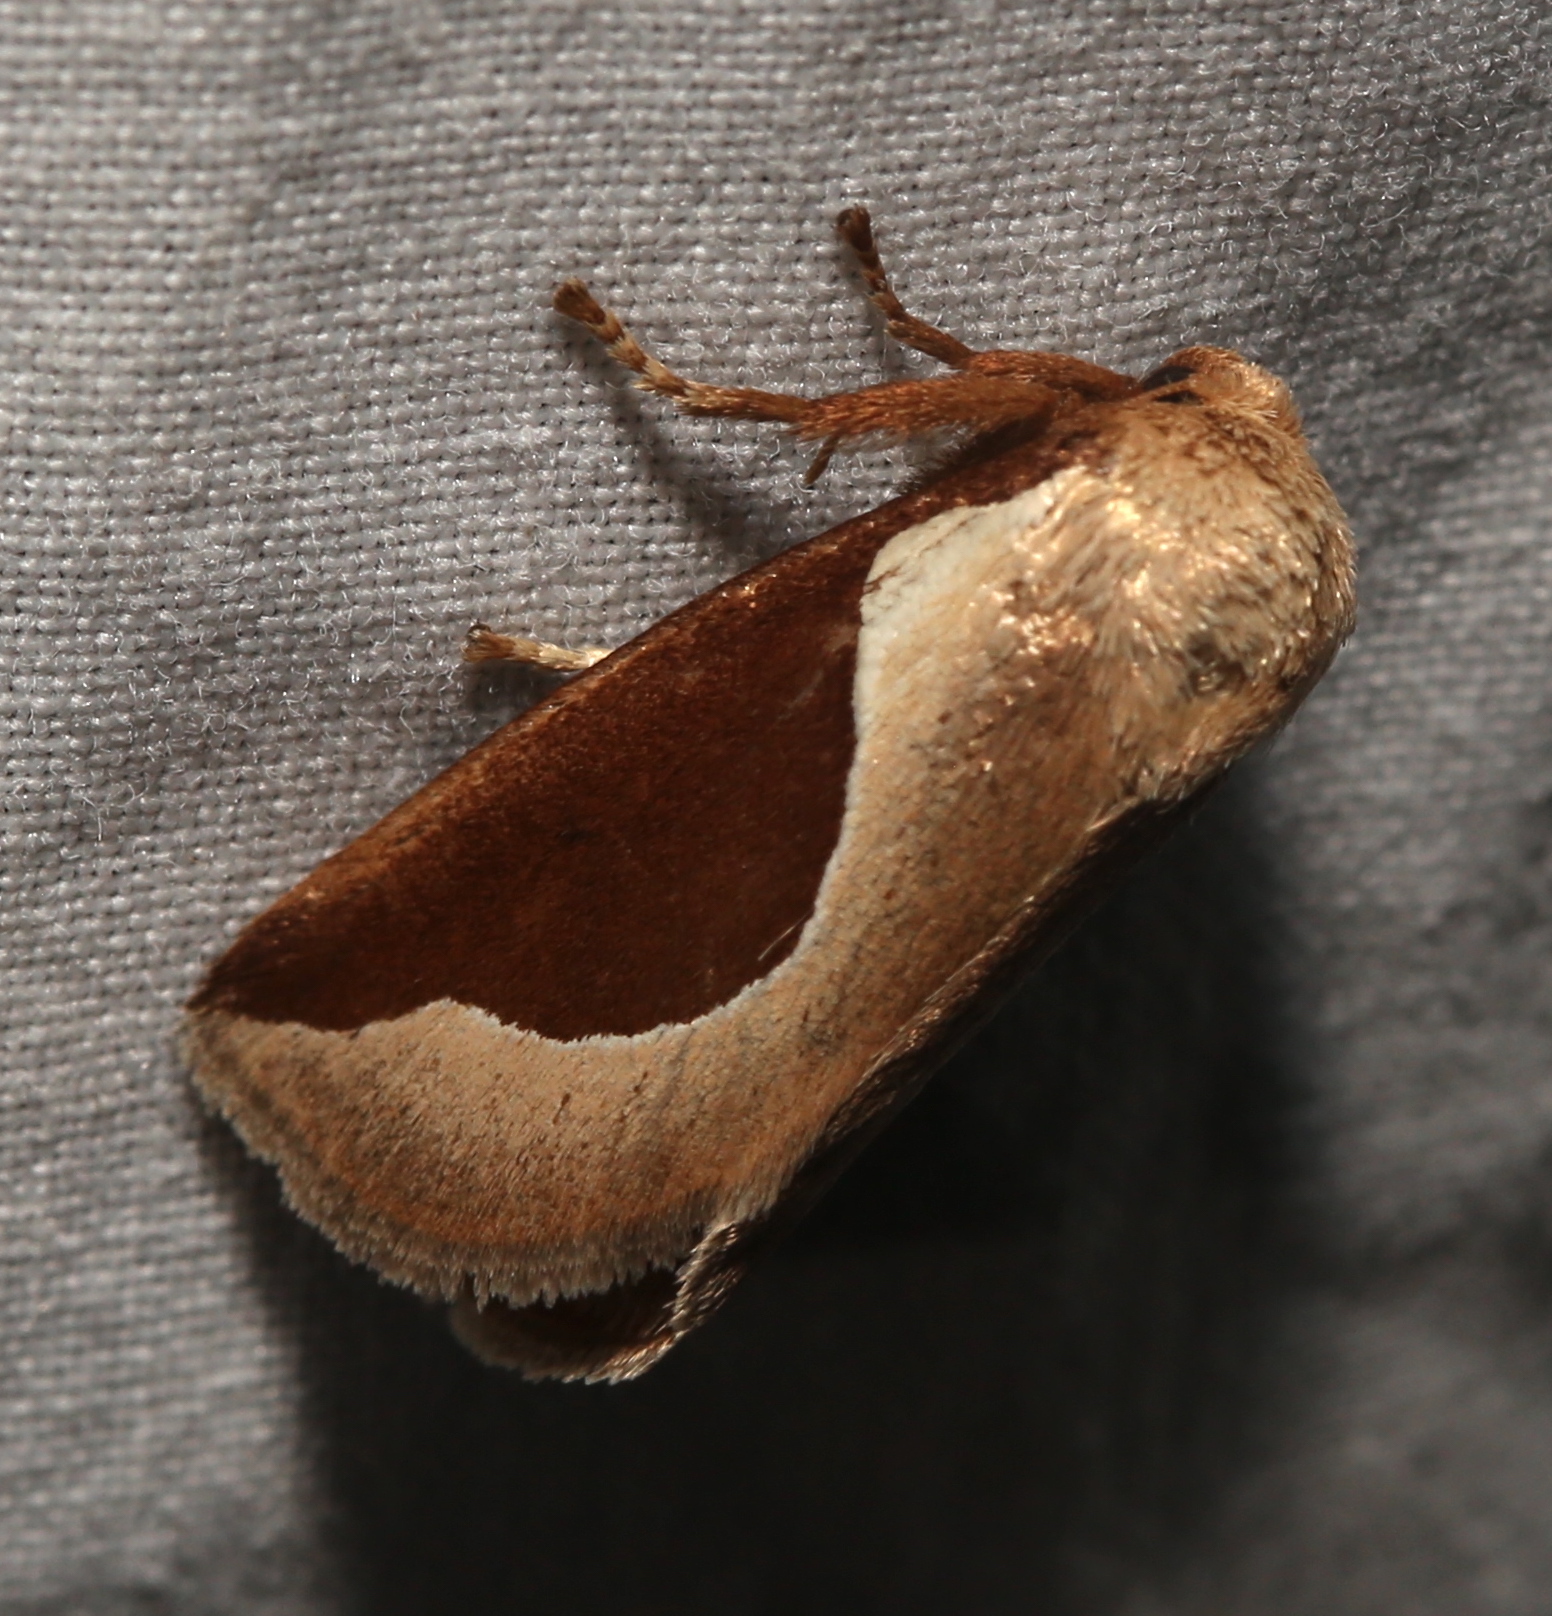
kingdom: Animalia
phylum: Arthropoda
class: Insecta
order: Lepidoptera
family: Limacodidae
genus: Prolimacodes
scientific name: Prolimacodes badia
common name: Skiff moth
